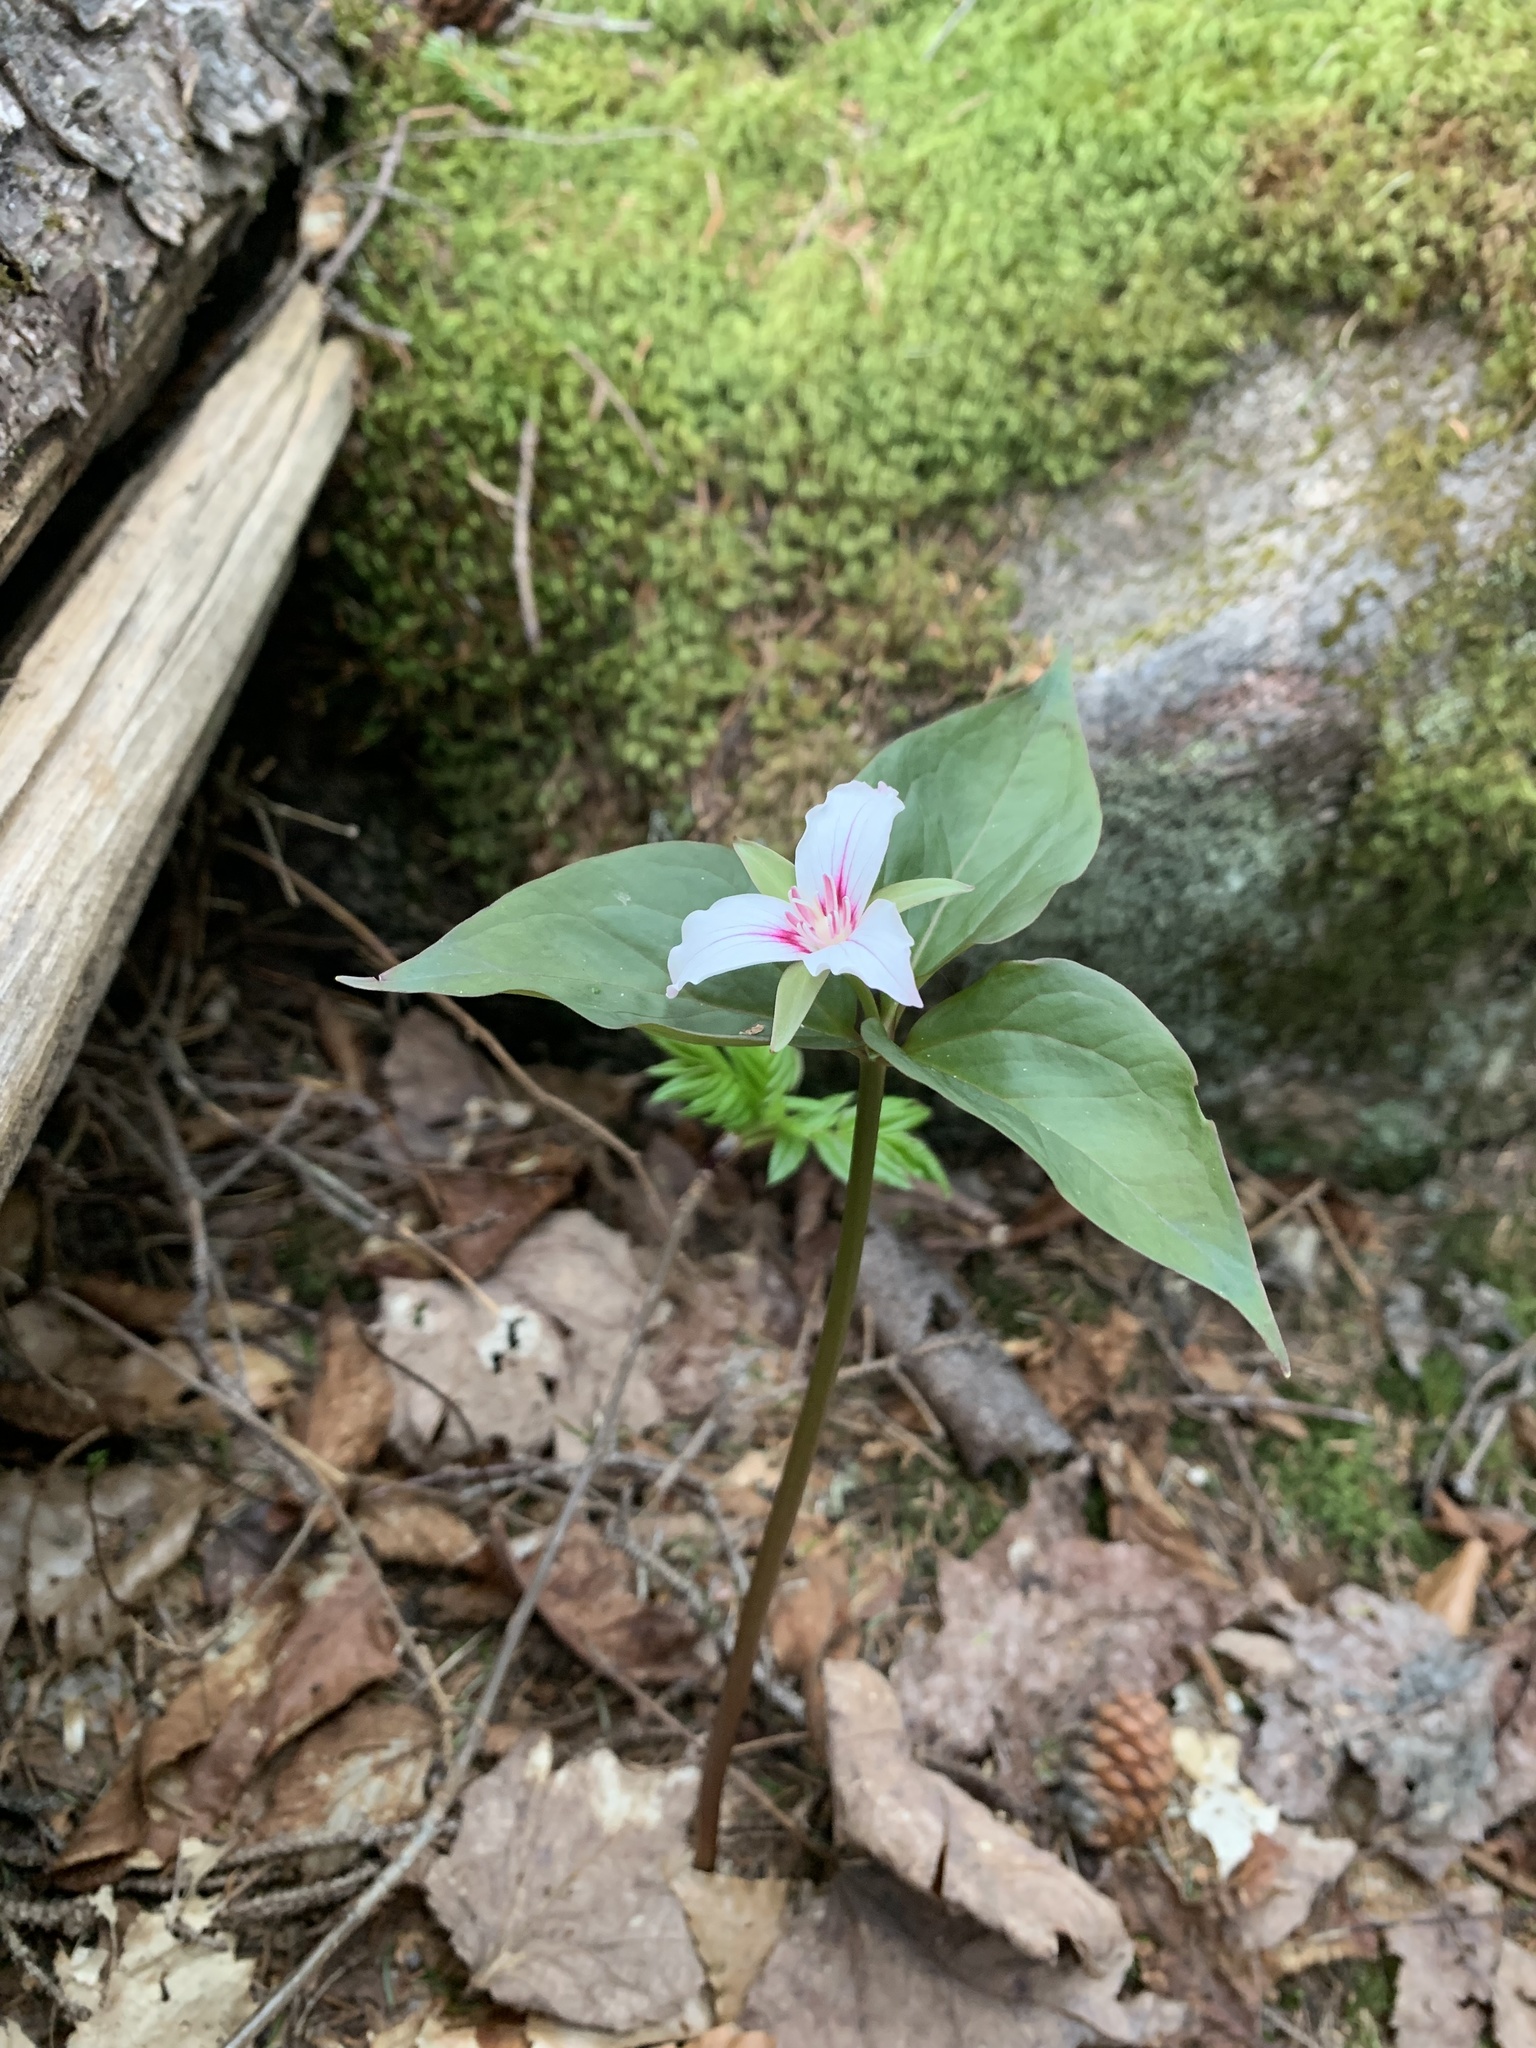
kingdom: Plantae
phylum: Tracheophyta
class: Liliopsida
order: Liliales
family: Melanthiaceae
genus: Trillium
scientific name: Trillium undulatum
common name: Paint trillium
